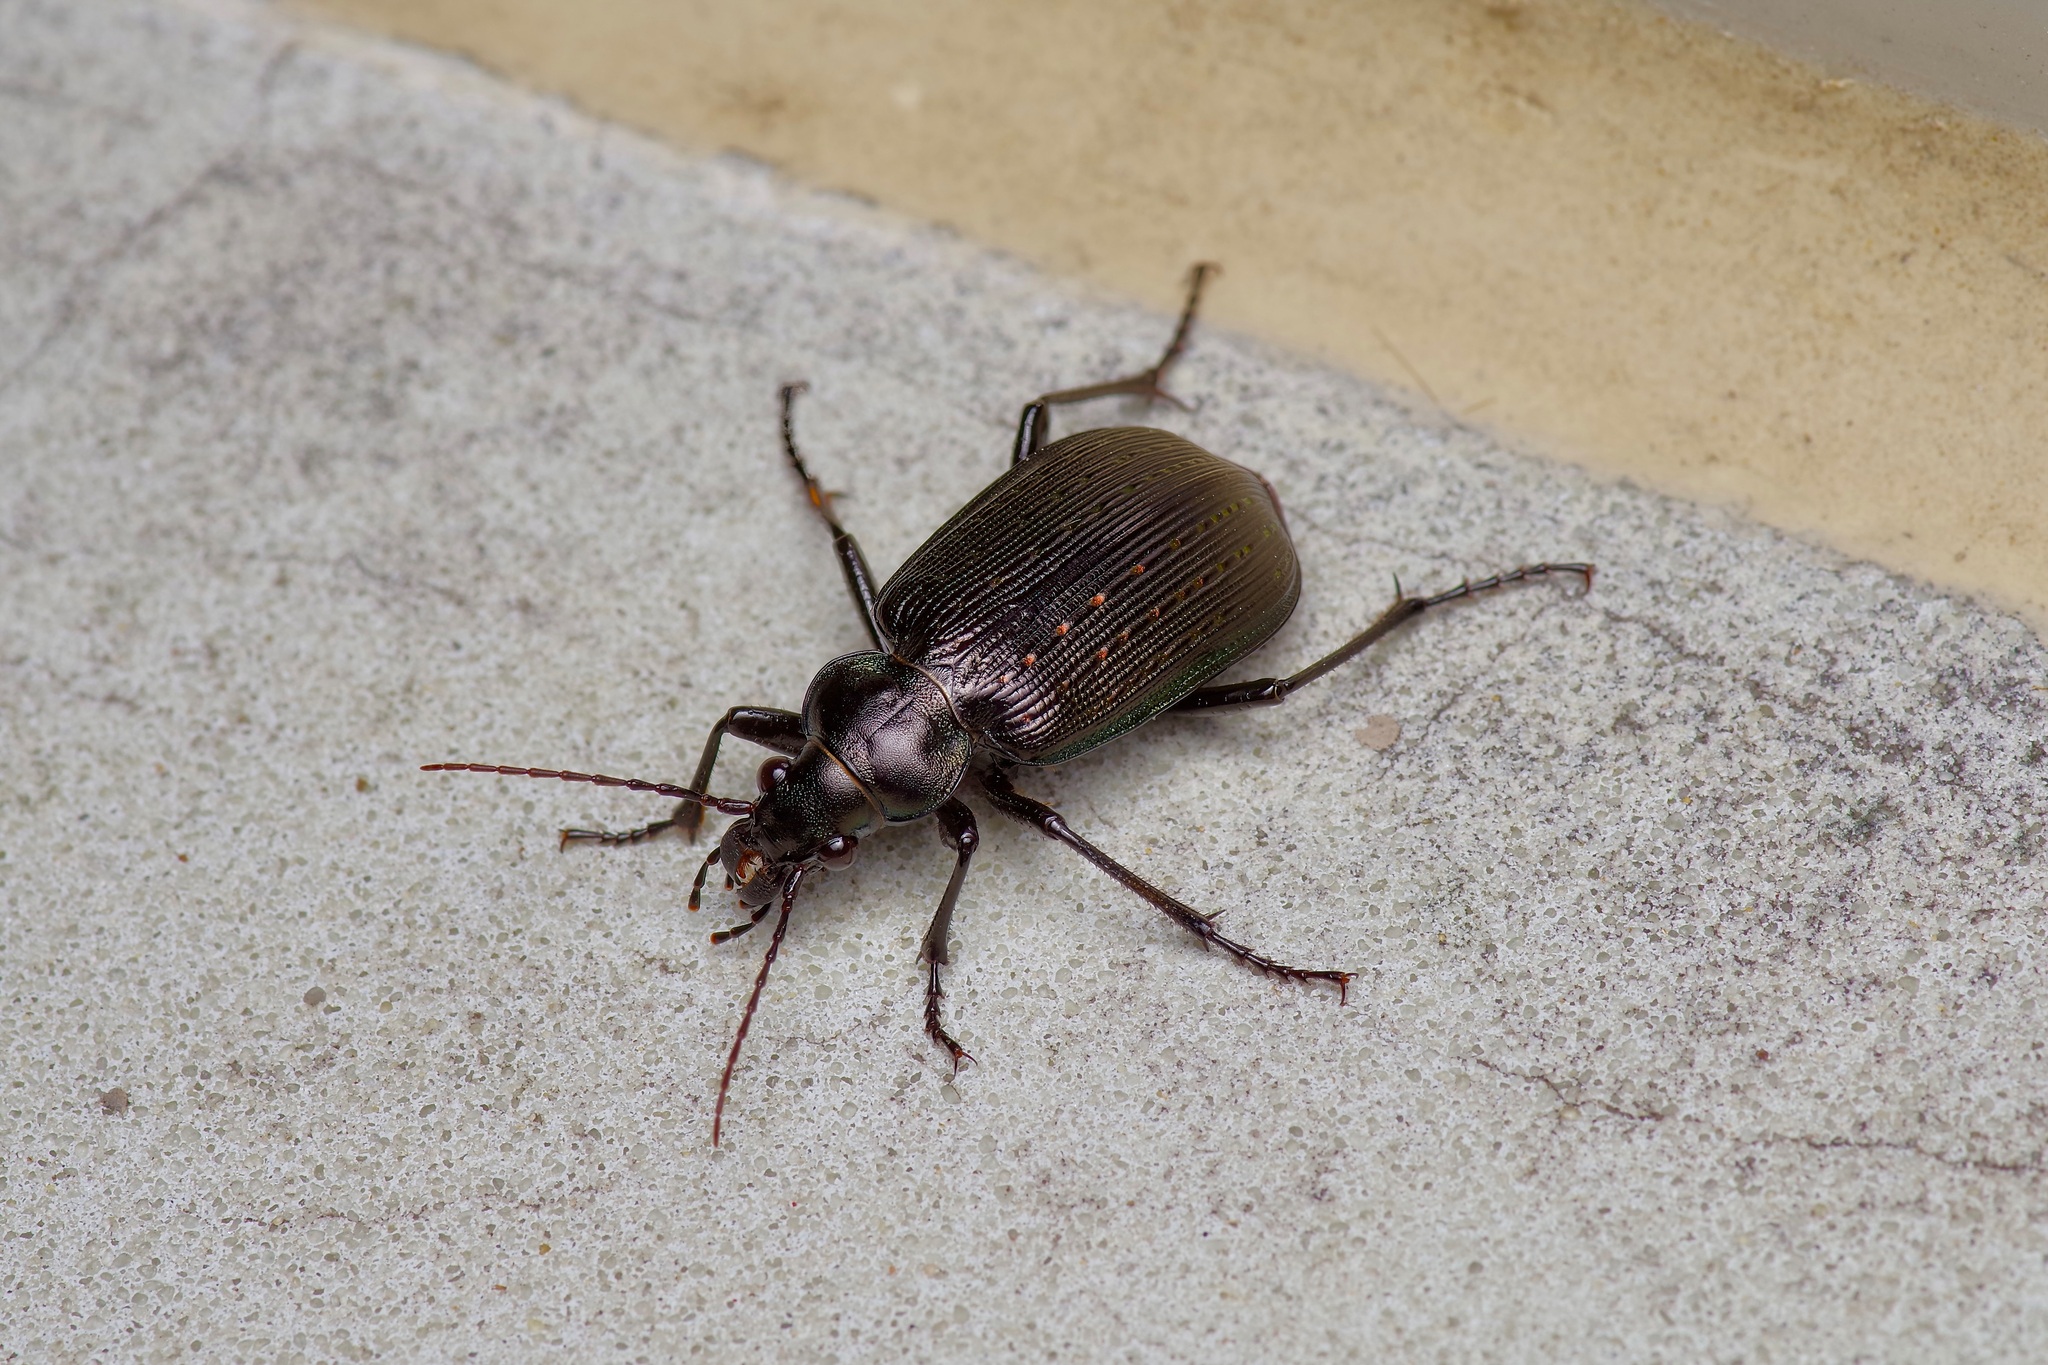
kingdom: Animalia
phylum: Arthropoda
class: Insecta
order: Coleoptera
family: Carabidae
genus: Calosoma
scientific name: Calosoma sayi
